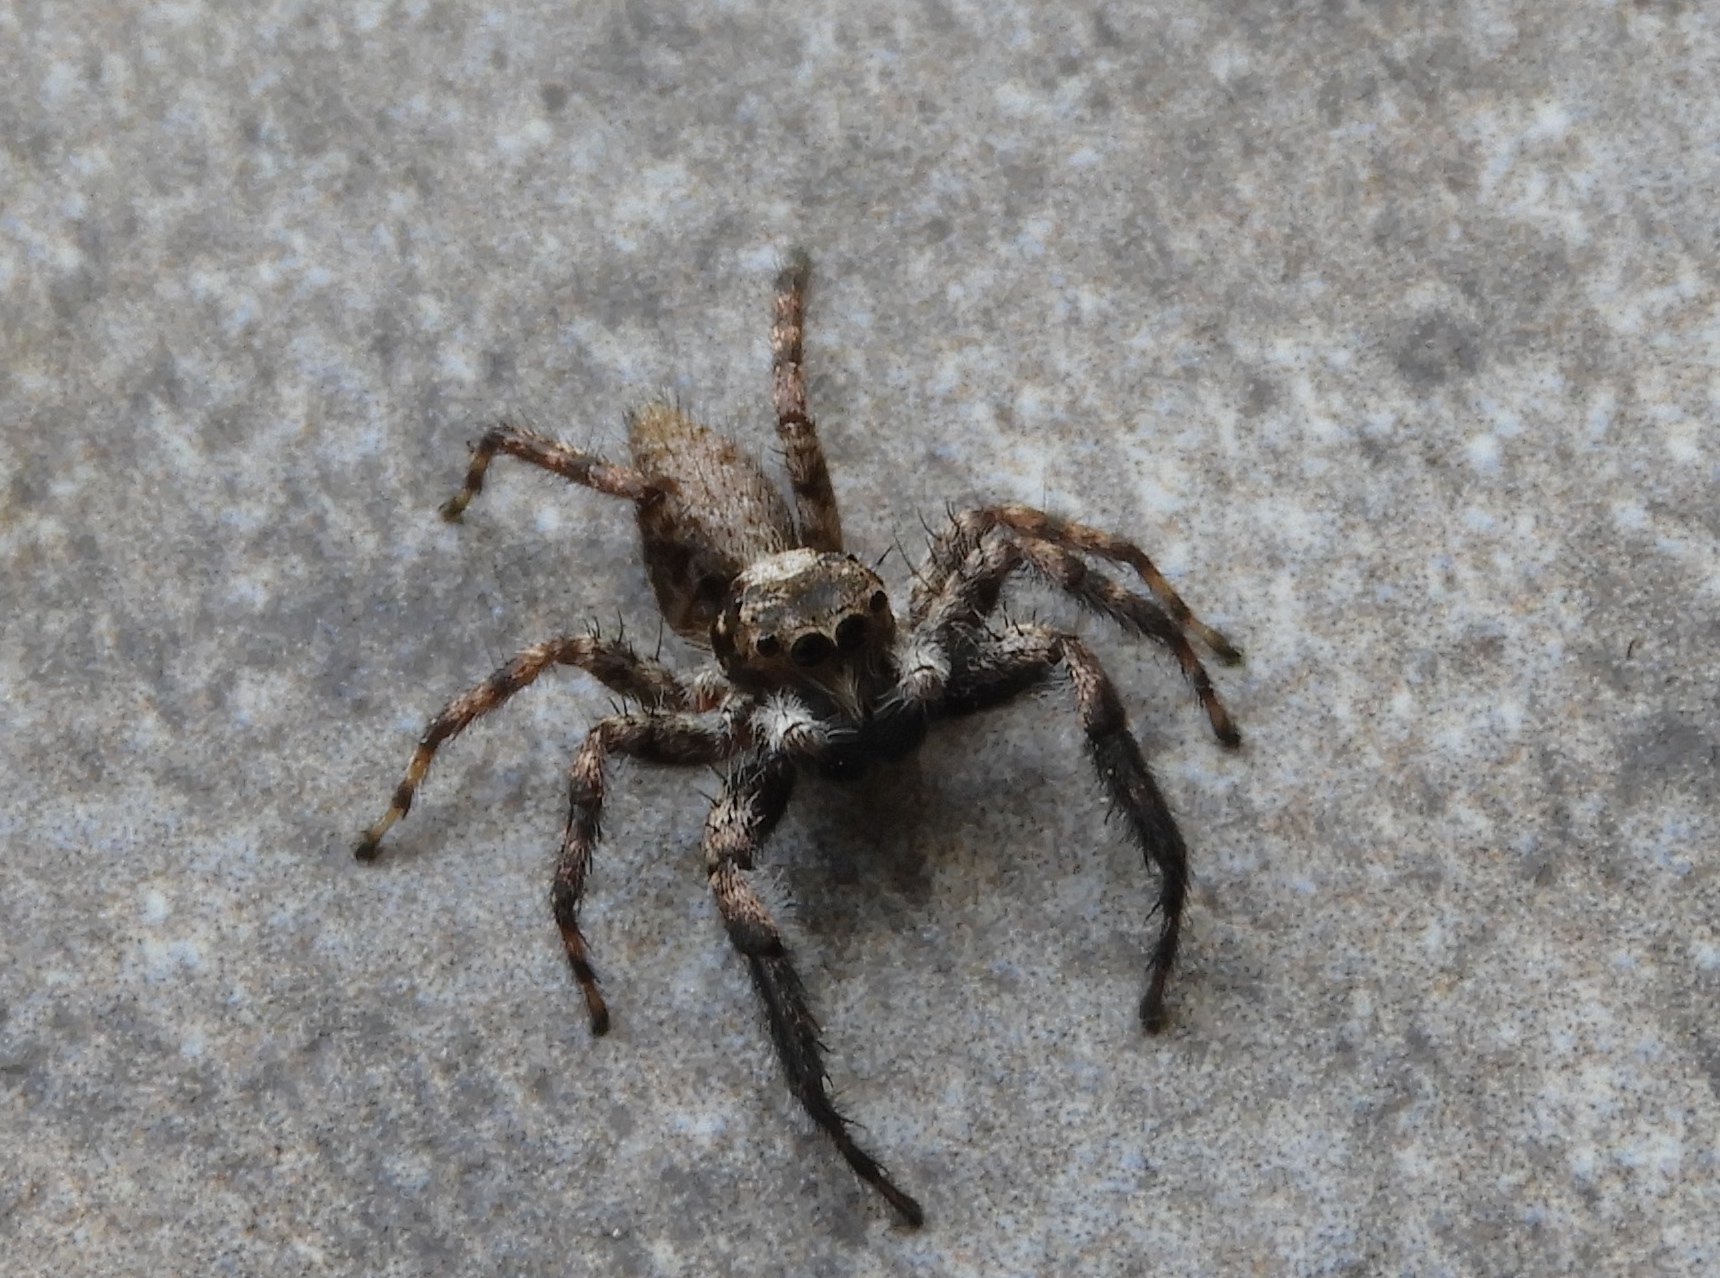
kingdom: Animalia
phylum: Arthropoda
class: Arachnida
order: Araneae
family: Salticidae
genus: Balmaceda
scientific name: Balmaceda
